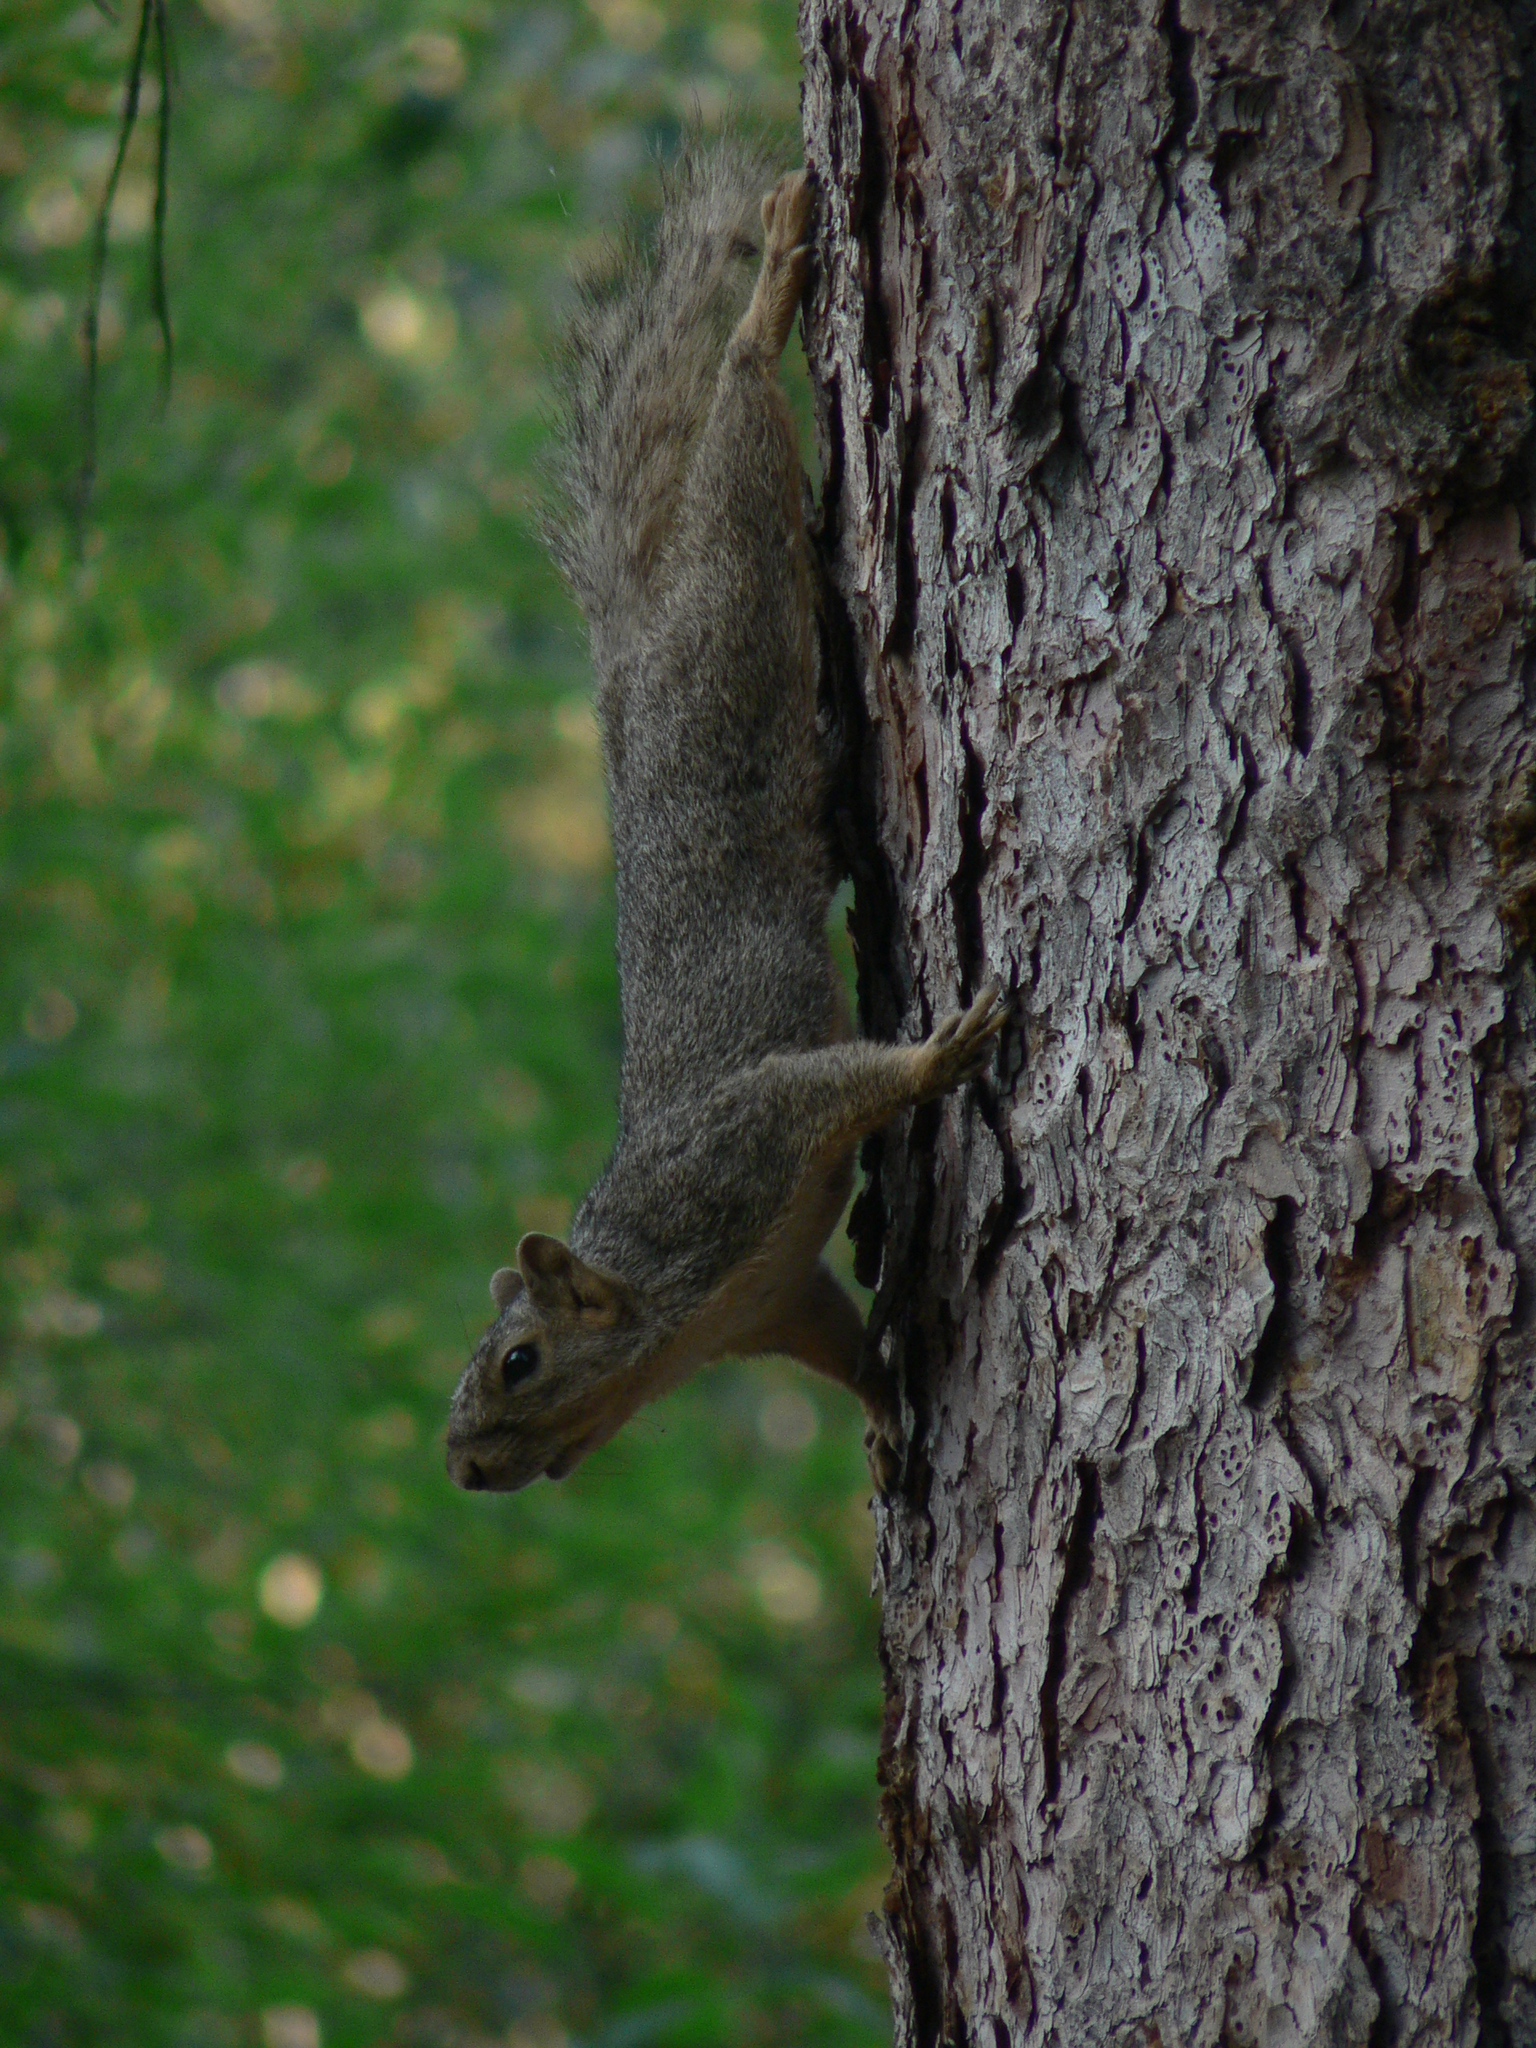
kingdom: Animalia
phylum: Chordata
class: Mammalia
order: Rodentia
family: Sciuridae
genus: Sciurus
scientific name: Sciurus niger
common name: Fox squirrel
